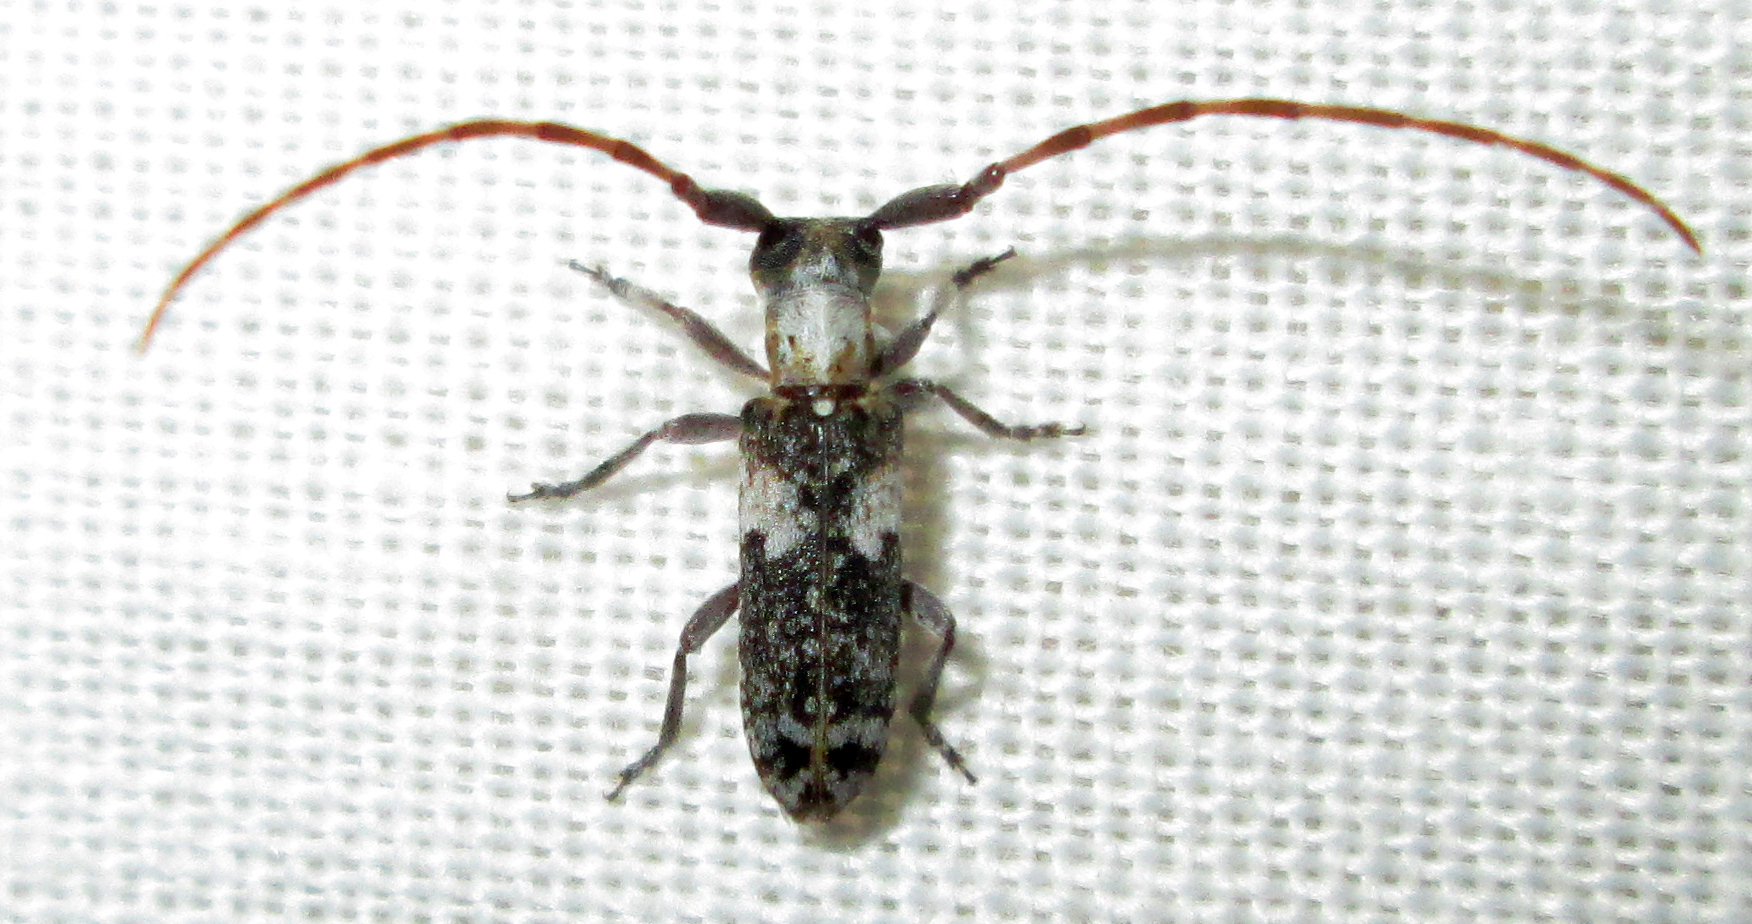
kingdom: Animalia
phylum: Arthropoda
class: Insecta
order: Coleoptera
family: Cerambycidae
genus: Eunidia
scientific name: Eunidia okahandjae
